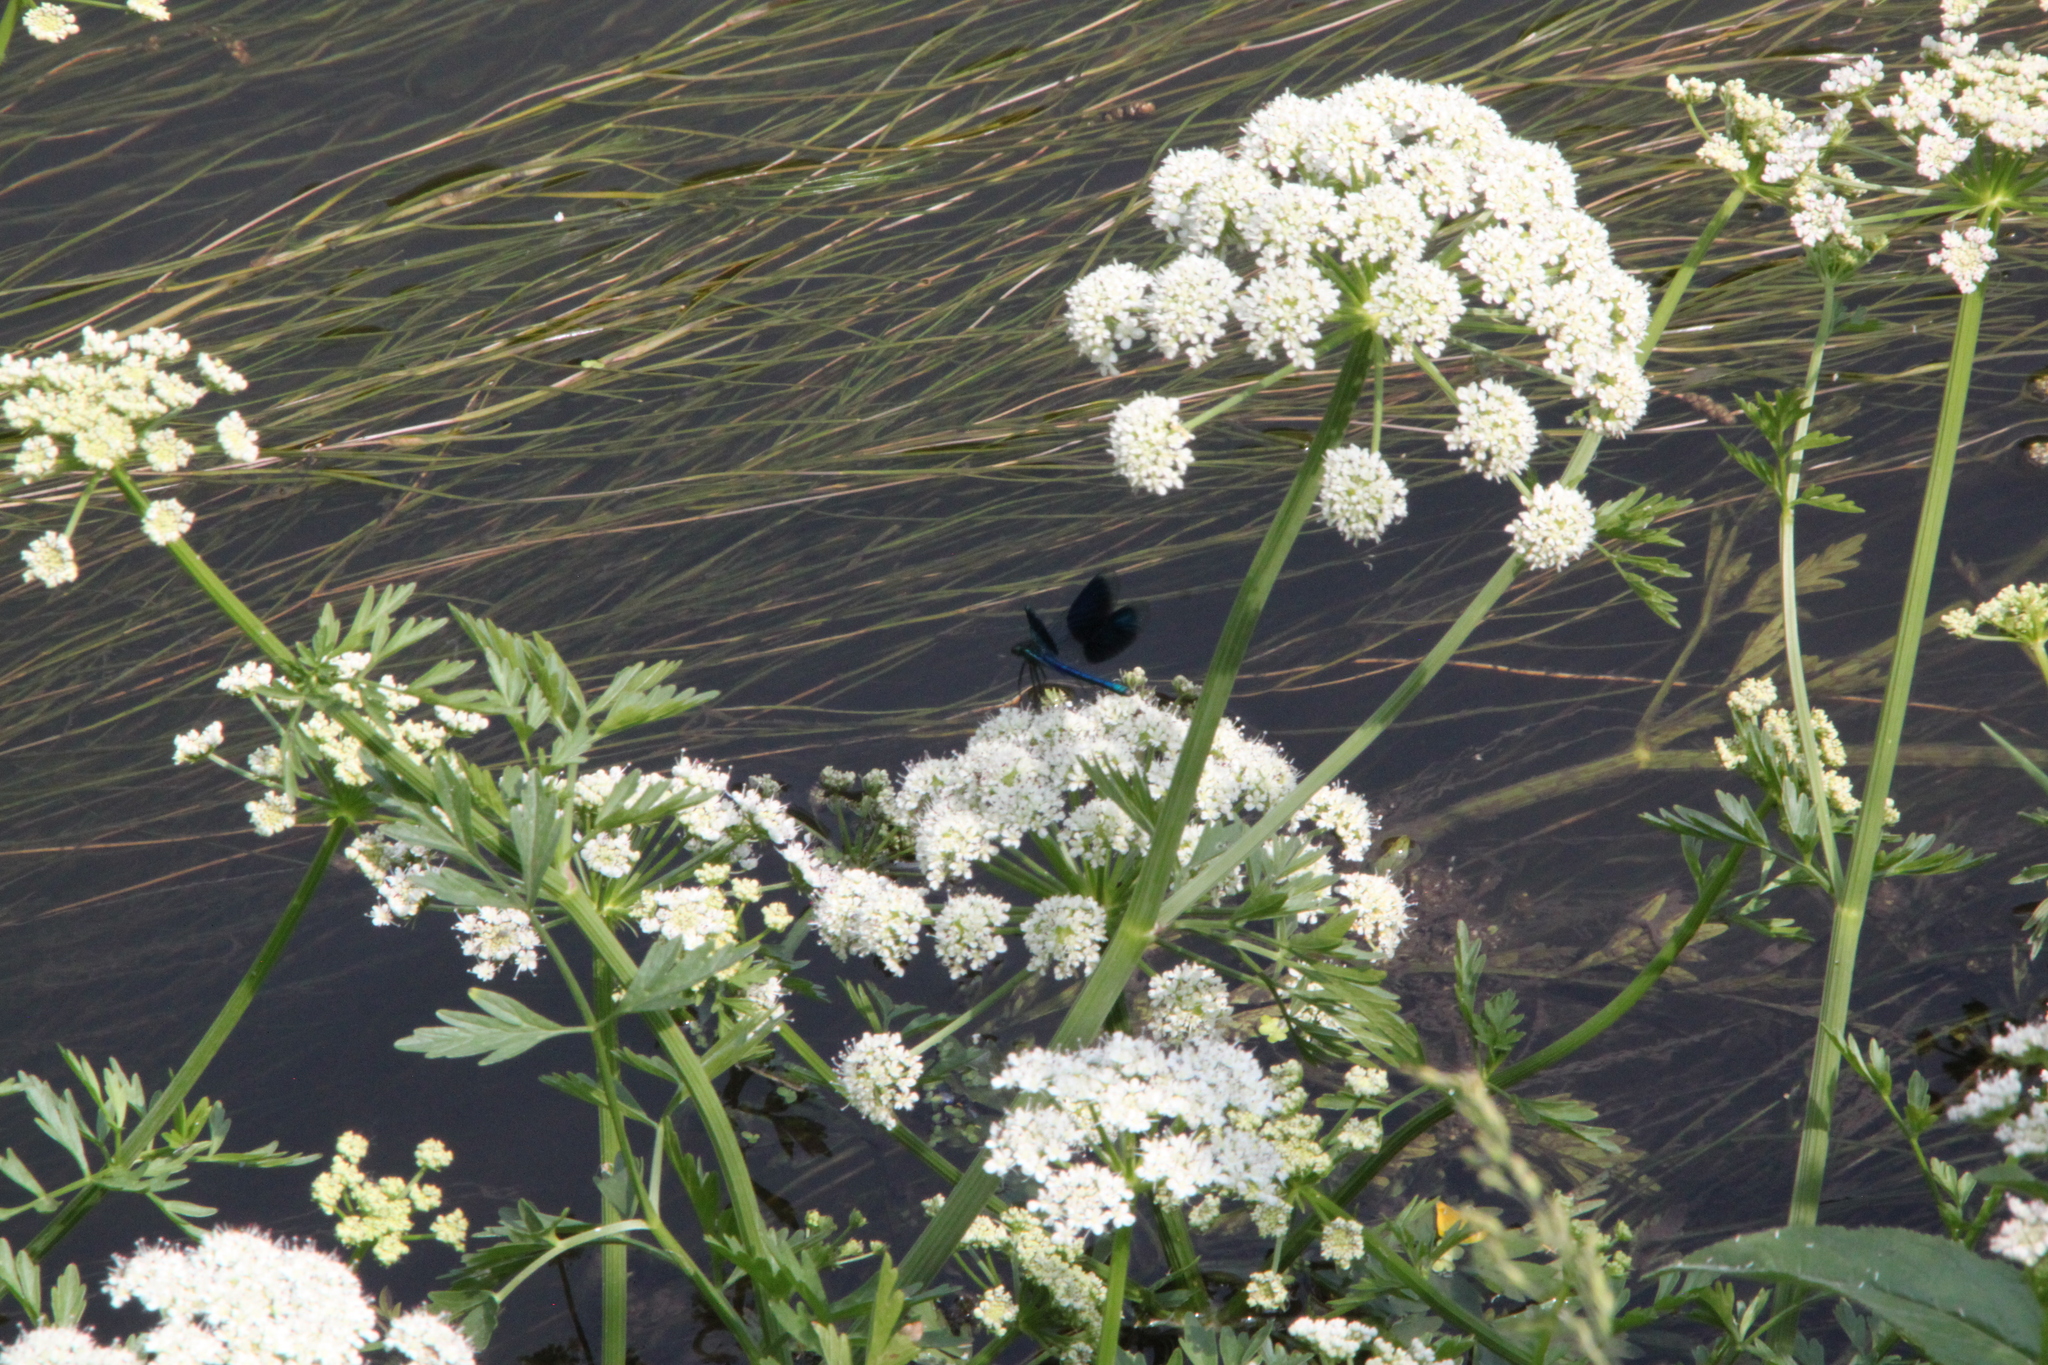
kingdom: Plantae
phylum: Tracheophyta
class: Magnoliopsida
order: Apiales
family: Apiaceae
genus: Oenanthe
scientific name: Oenanthe crocata
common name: Hemlock water-dropwort
